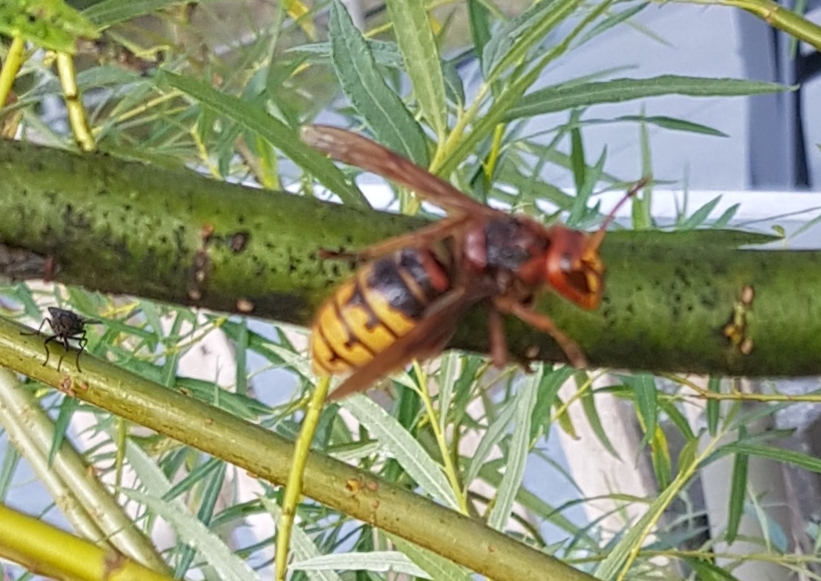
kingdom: Animalia
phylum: Arthropoda
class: Insecta
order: Hymenoptera
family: Vespidae
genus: Vespa
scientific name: Vespa crabro
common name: Hornet
